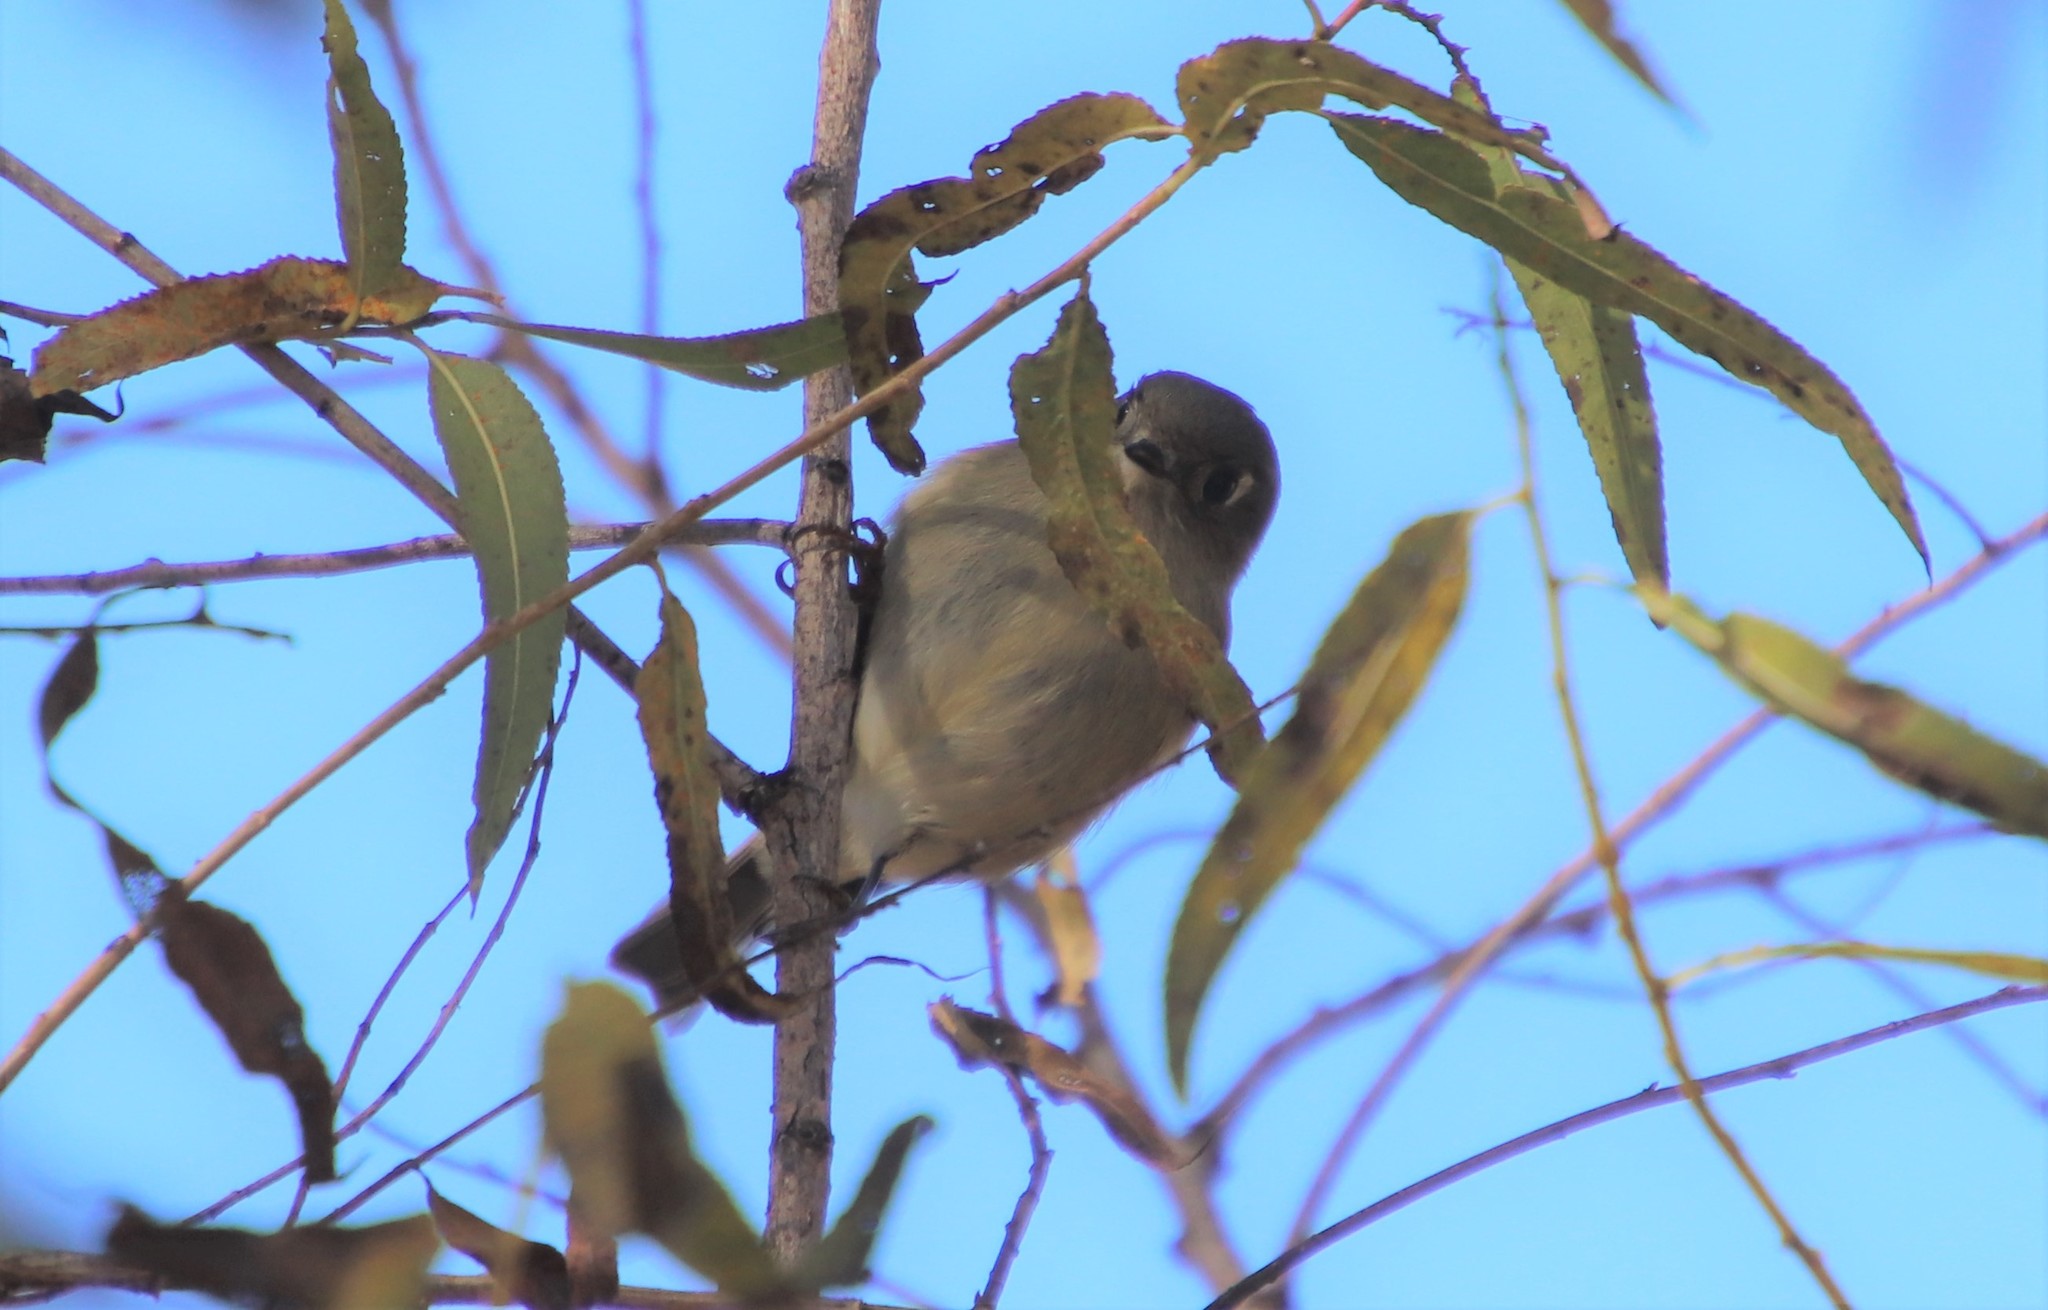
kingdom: Animalia
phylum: Chordata
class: Aves
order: Passeriformes
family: Regulidae
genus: Regulus
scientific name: Regulus calendula
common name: Ruby-crowned kinglet
